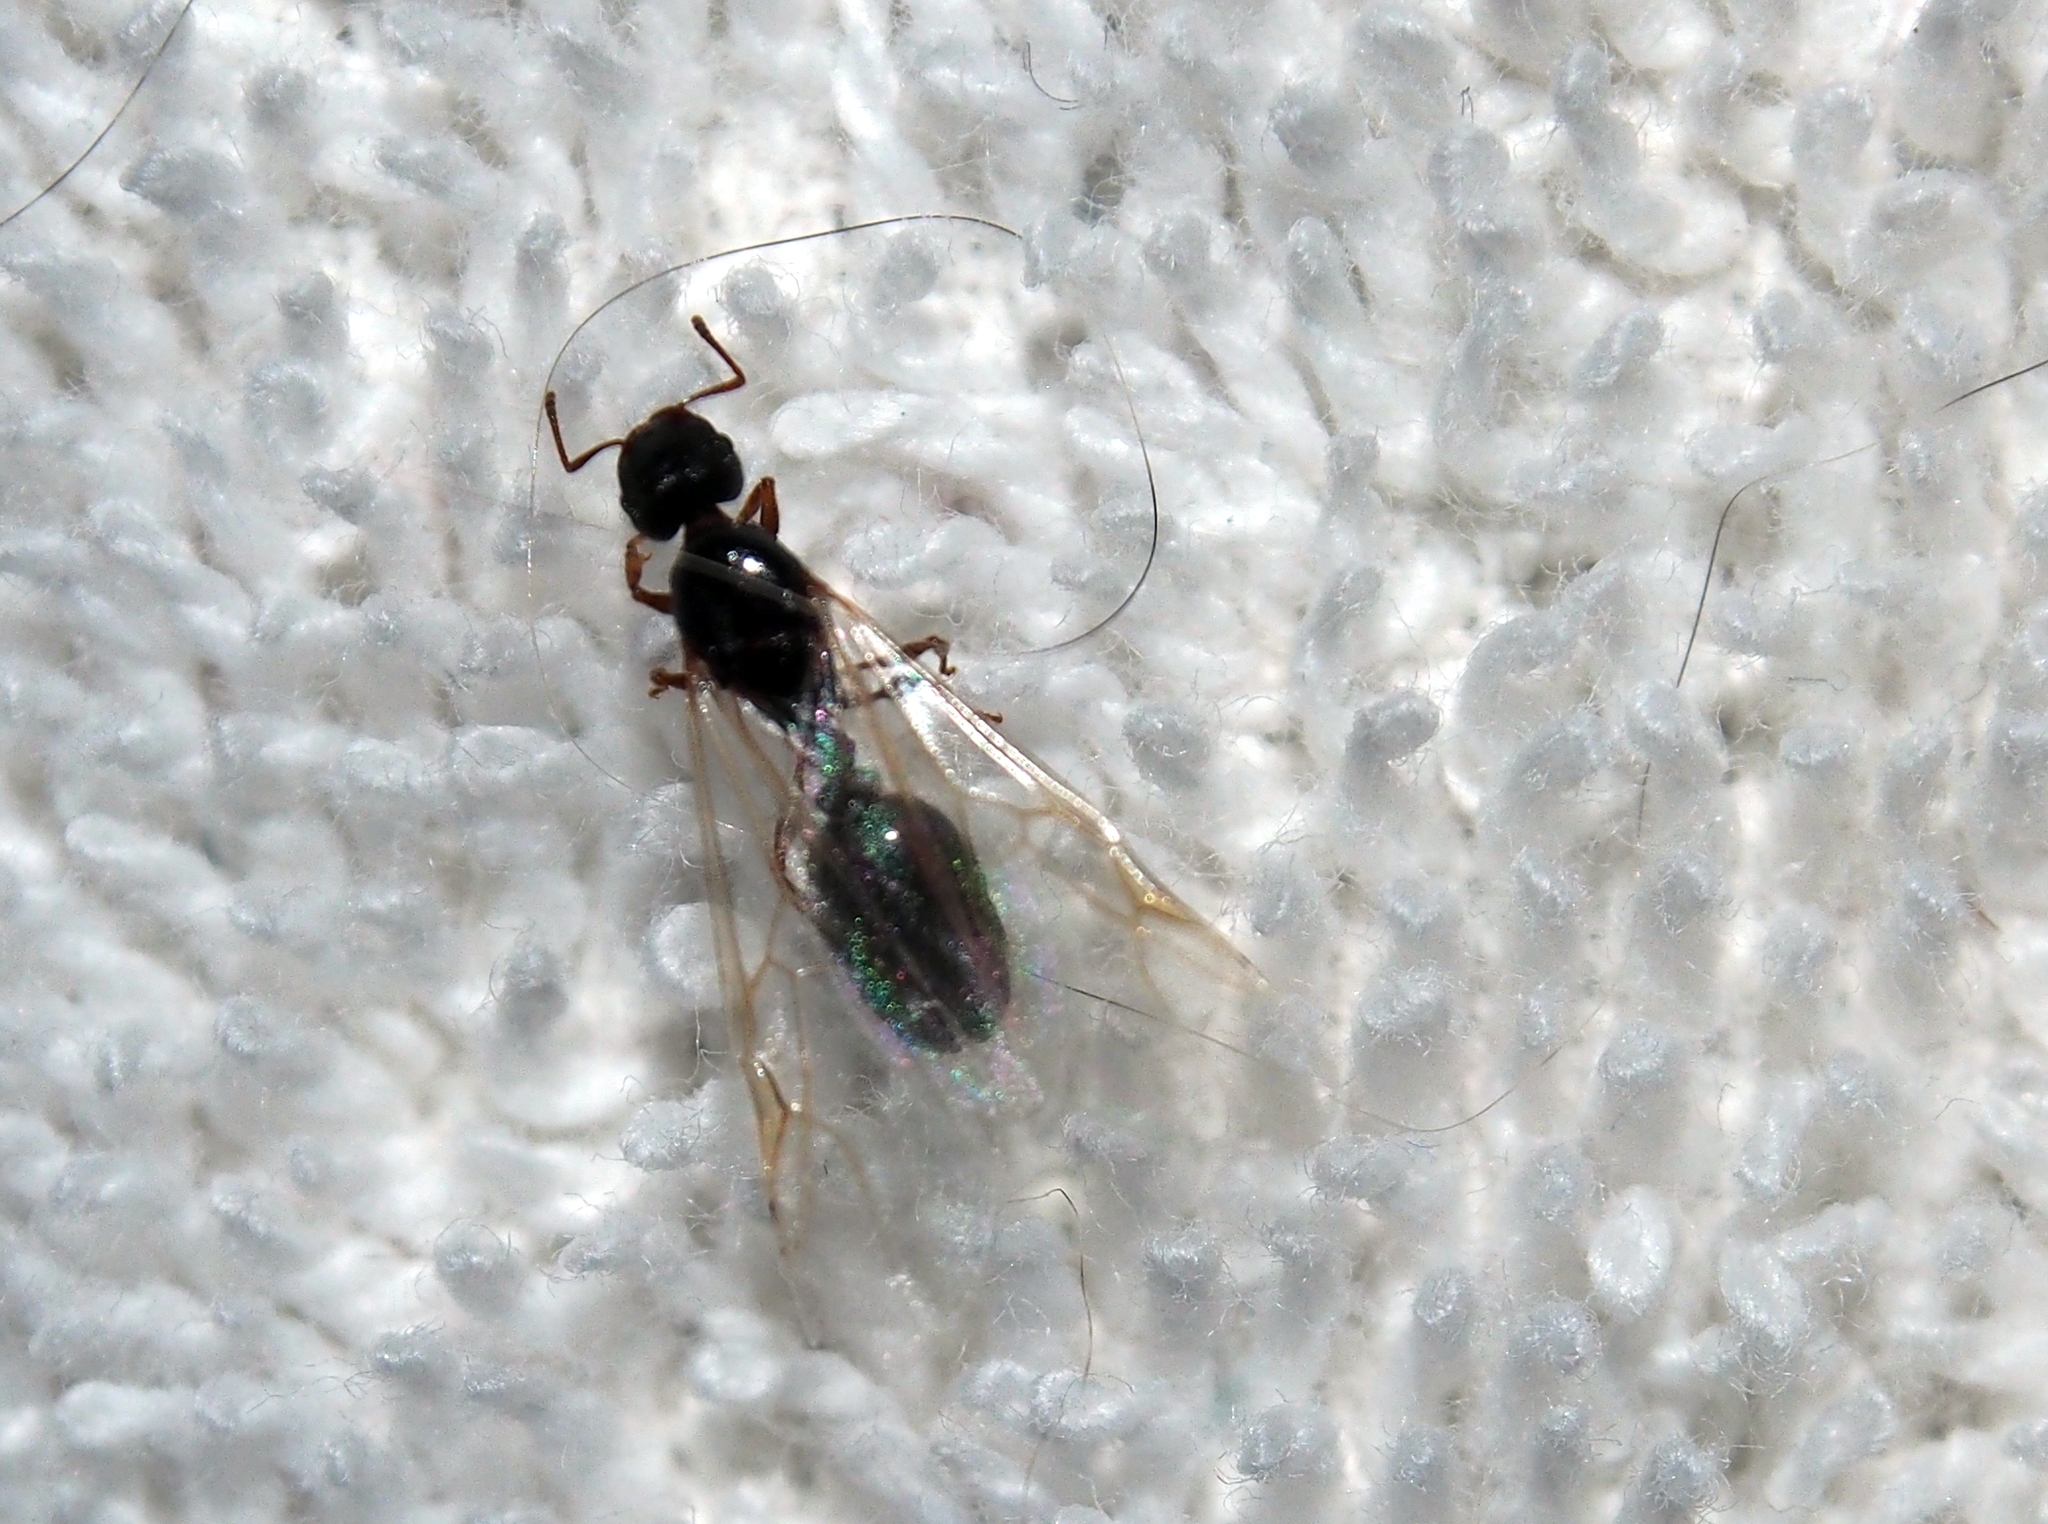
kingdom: Animalia
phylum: Arthropoda
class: Insecta
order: Hymenoptera
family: Formicidae
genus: Tetramorium
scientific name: Tetramorium immigrans
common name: Pavement ant
